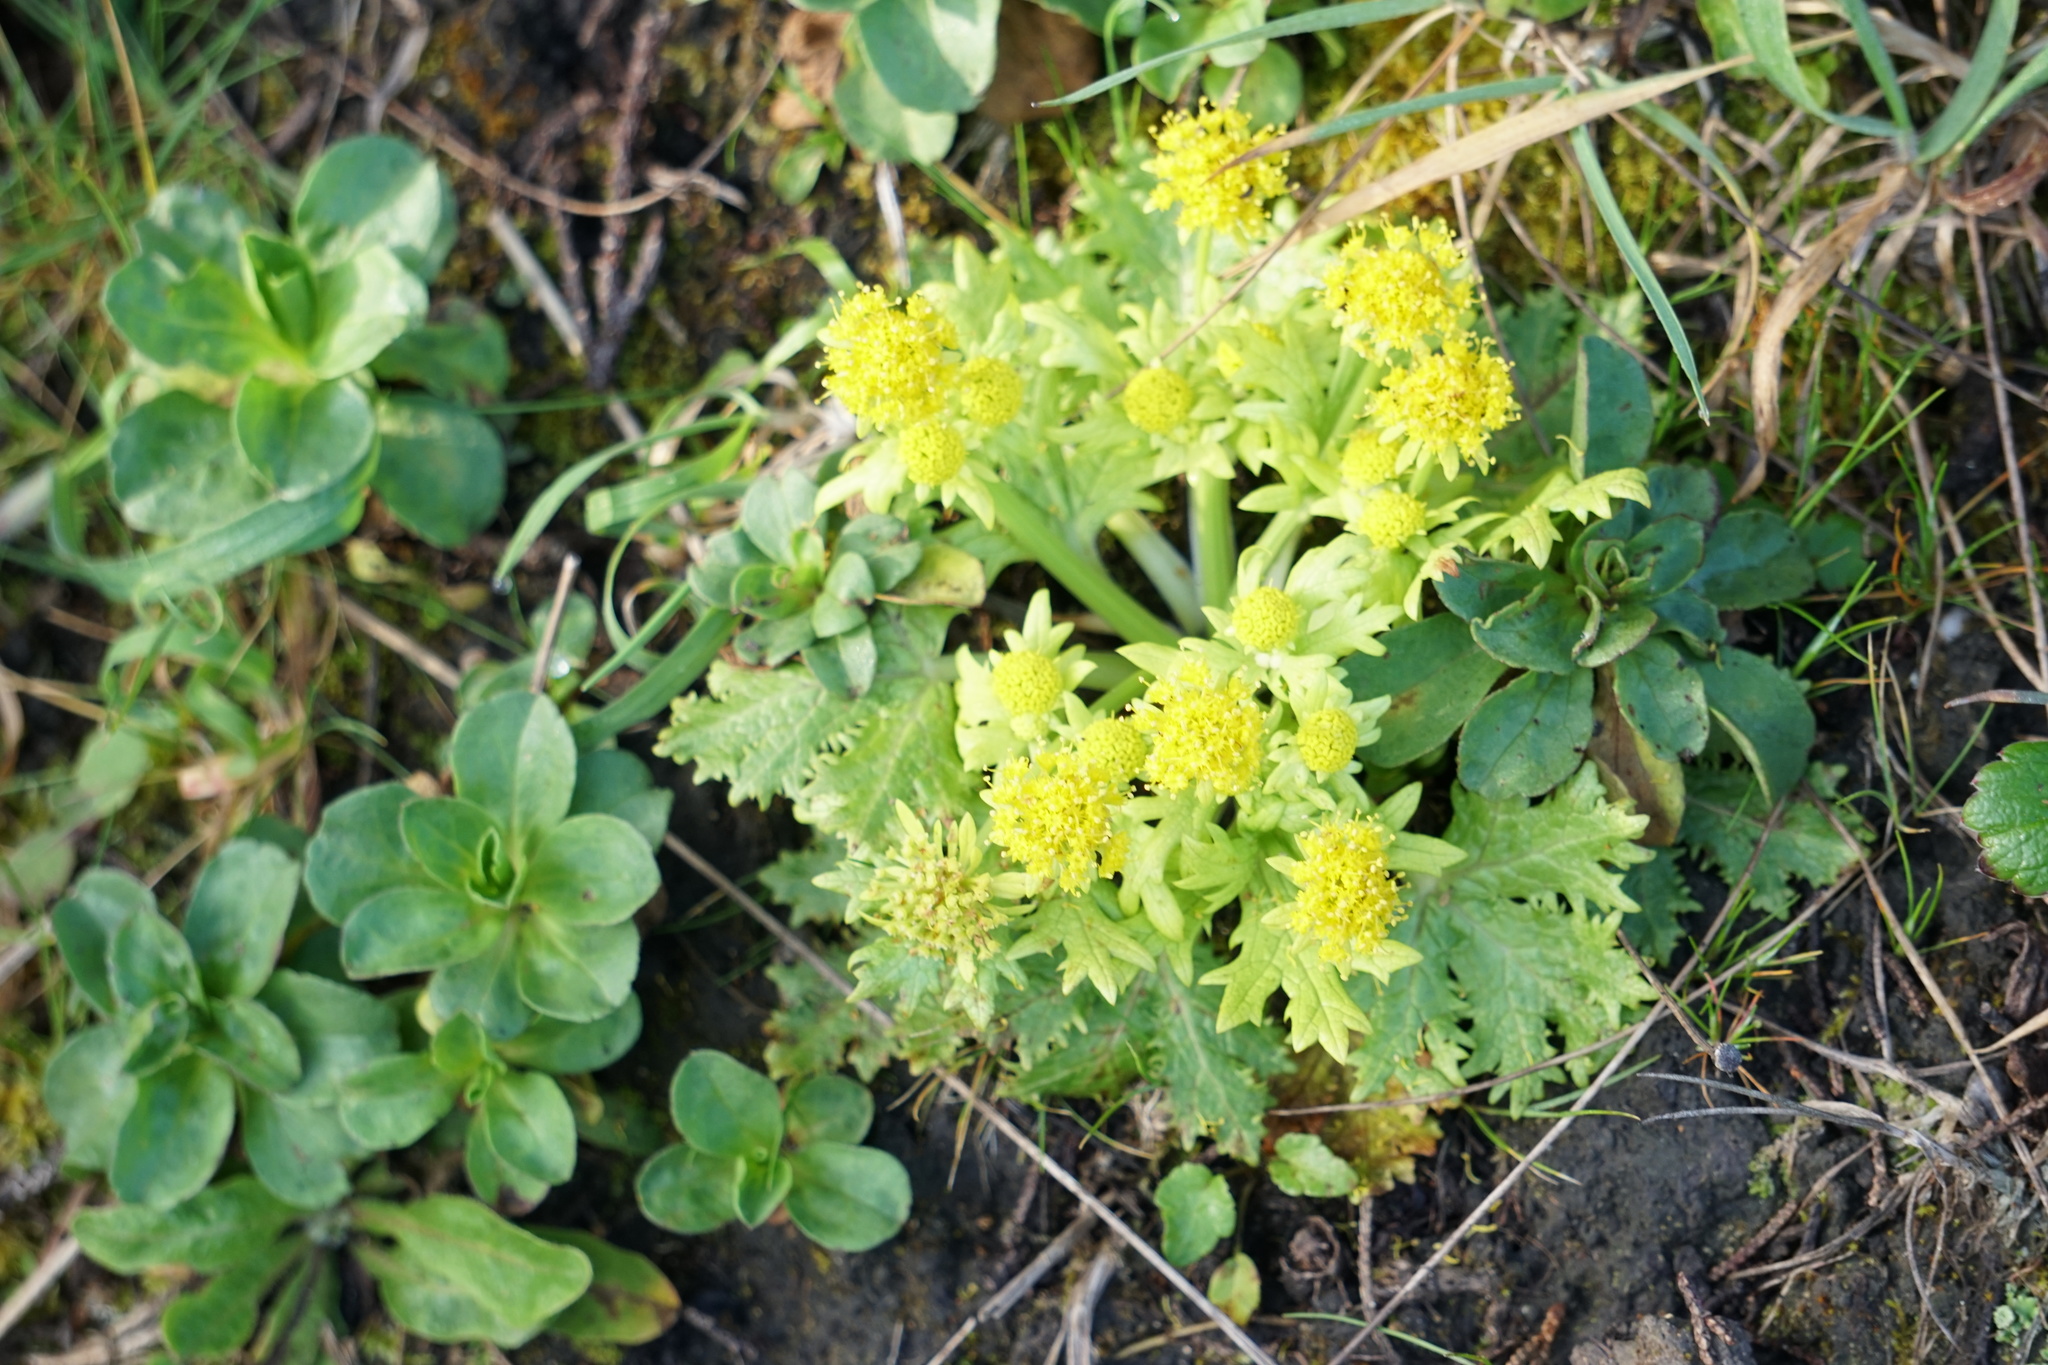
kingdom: Plantae
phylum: Tracheophyta
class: Magnoliopsida
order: Apiales
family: Apiaceae
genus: Sanicula
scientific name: Sanicula arctopoides
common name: Footsteps-of-spring
